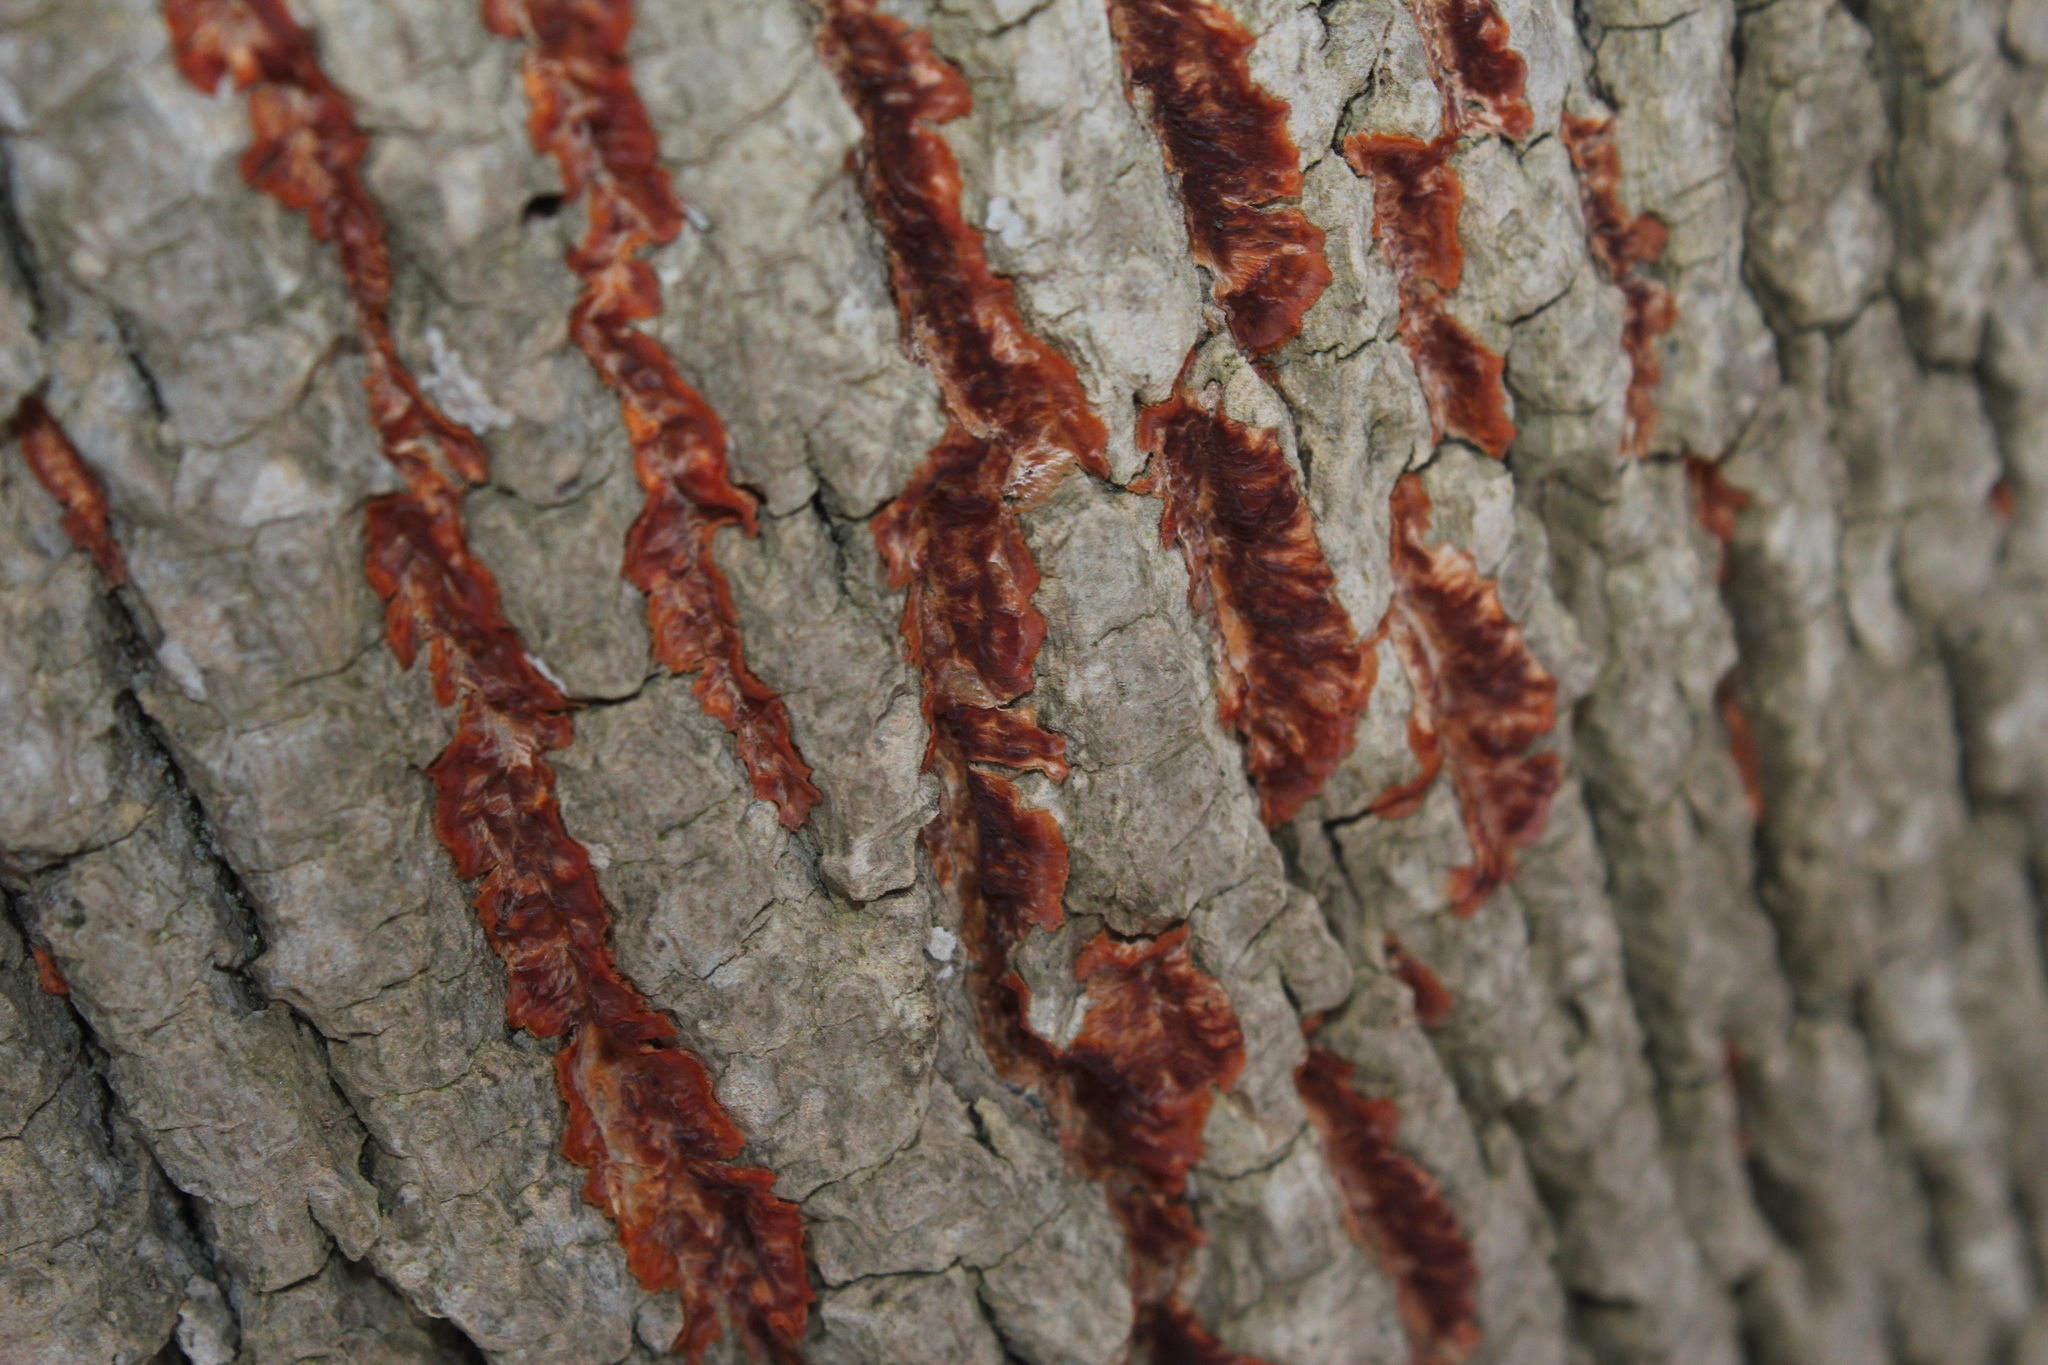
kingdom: Fungi
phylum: Basidiomycota
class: Agaricomycetes
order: Polyporales
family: Meruliaceae
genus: Phlebia
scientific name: Phlebia radiata
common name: Wrinkled crust
